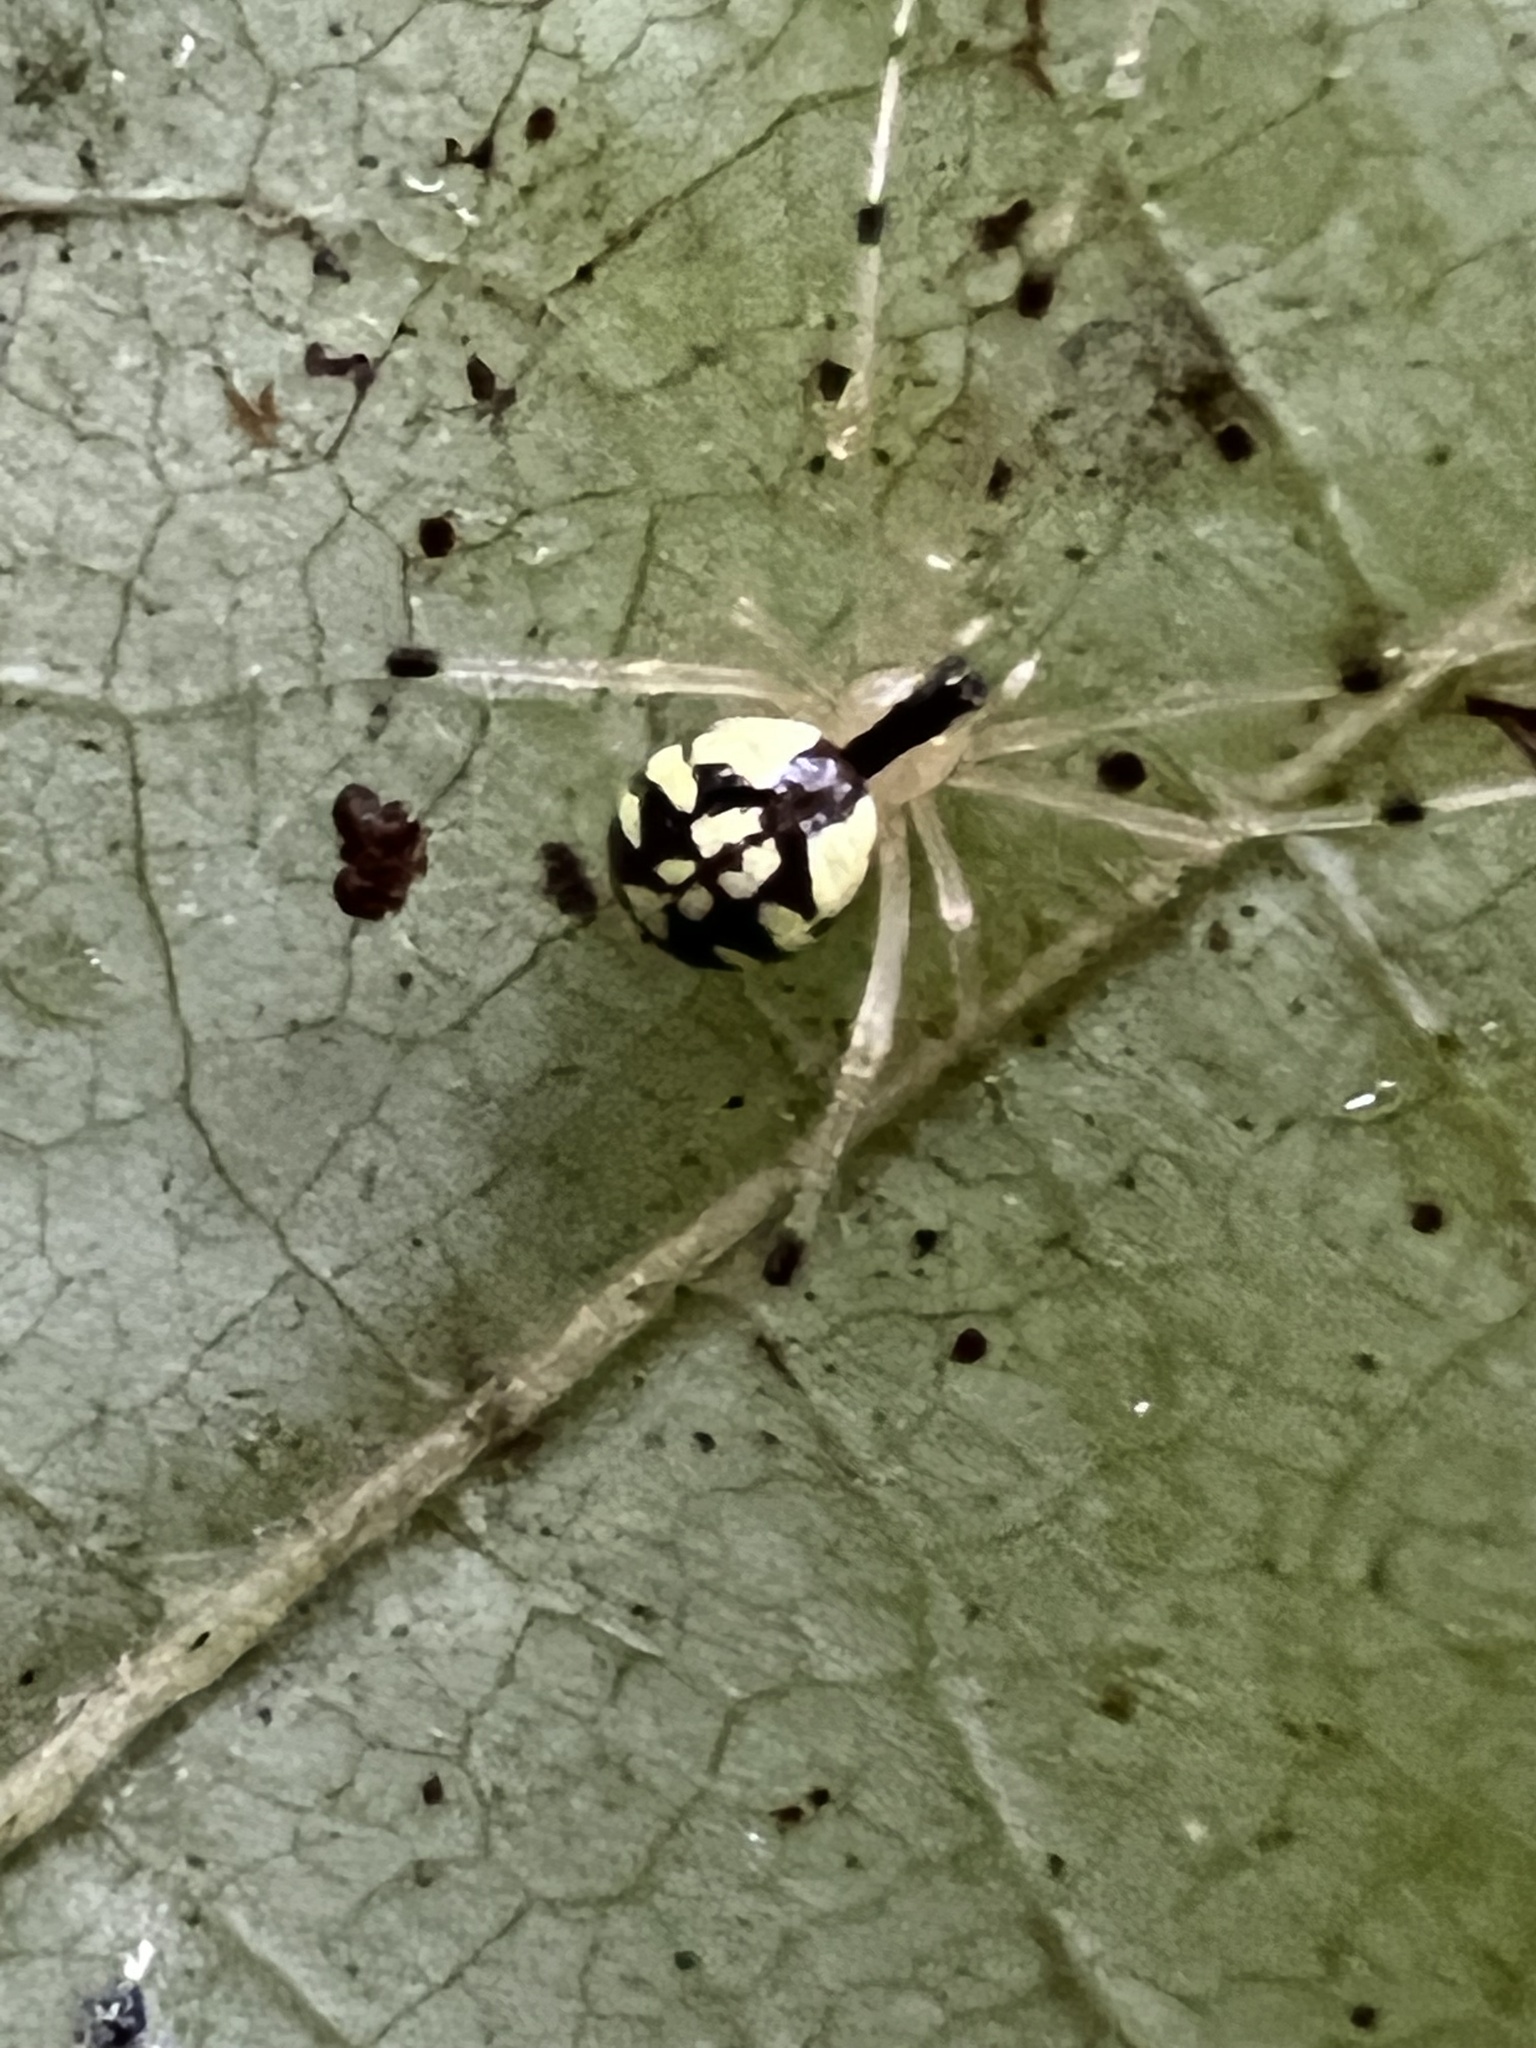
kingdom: Animalia
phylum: Arthropoda
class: Arachnida
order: Araneae
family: Theridiidae
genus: Phylloneta
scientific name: Phylloneta pictipes
